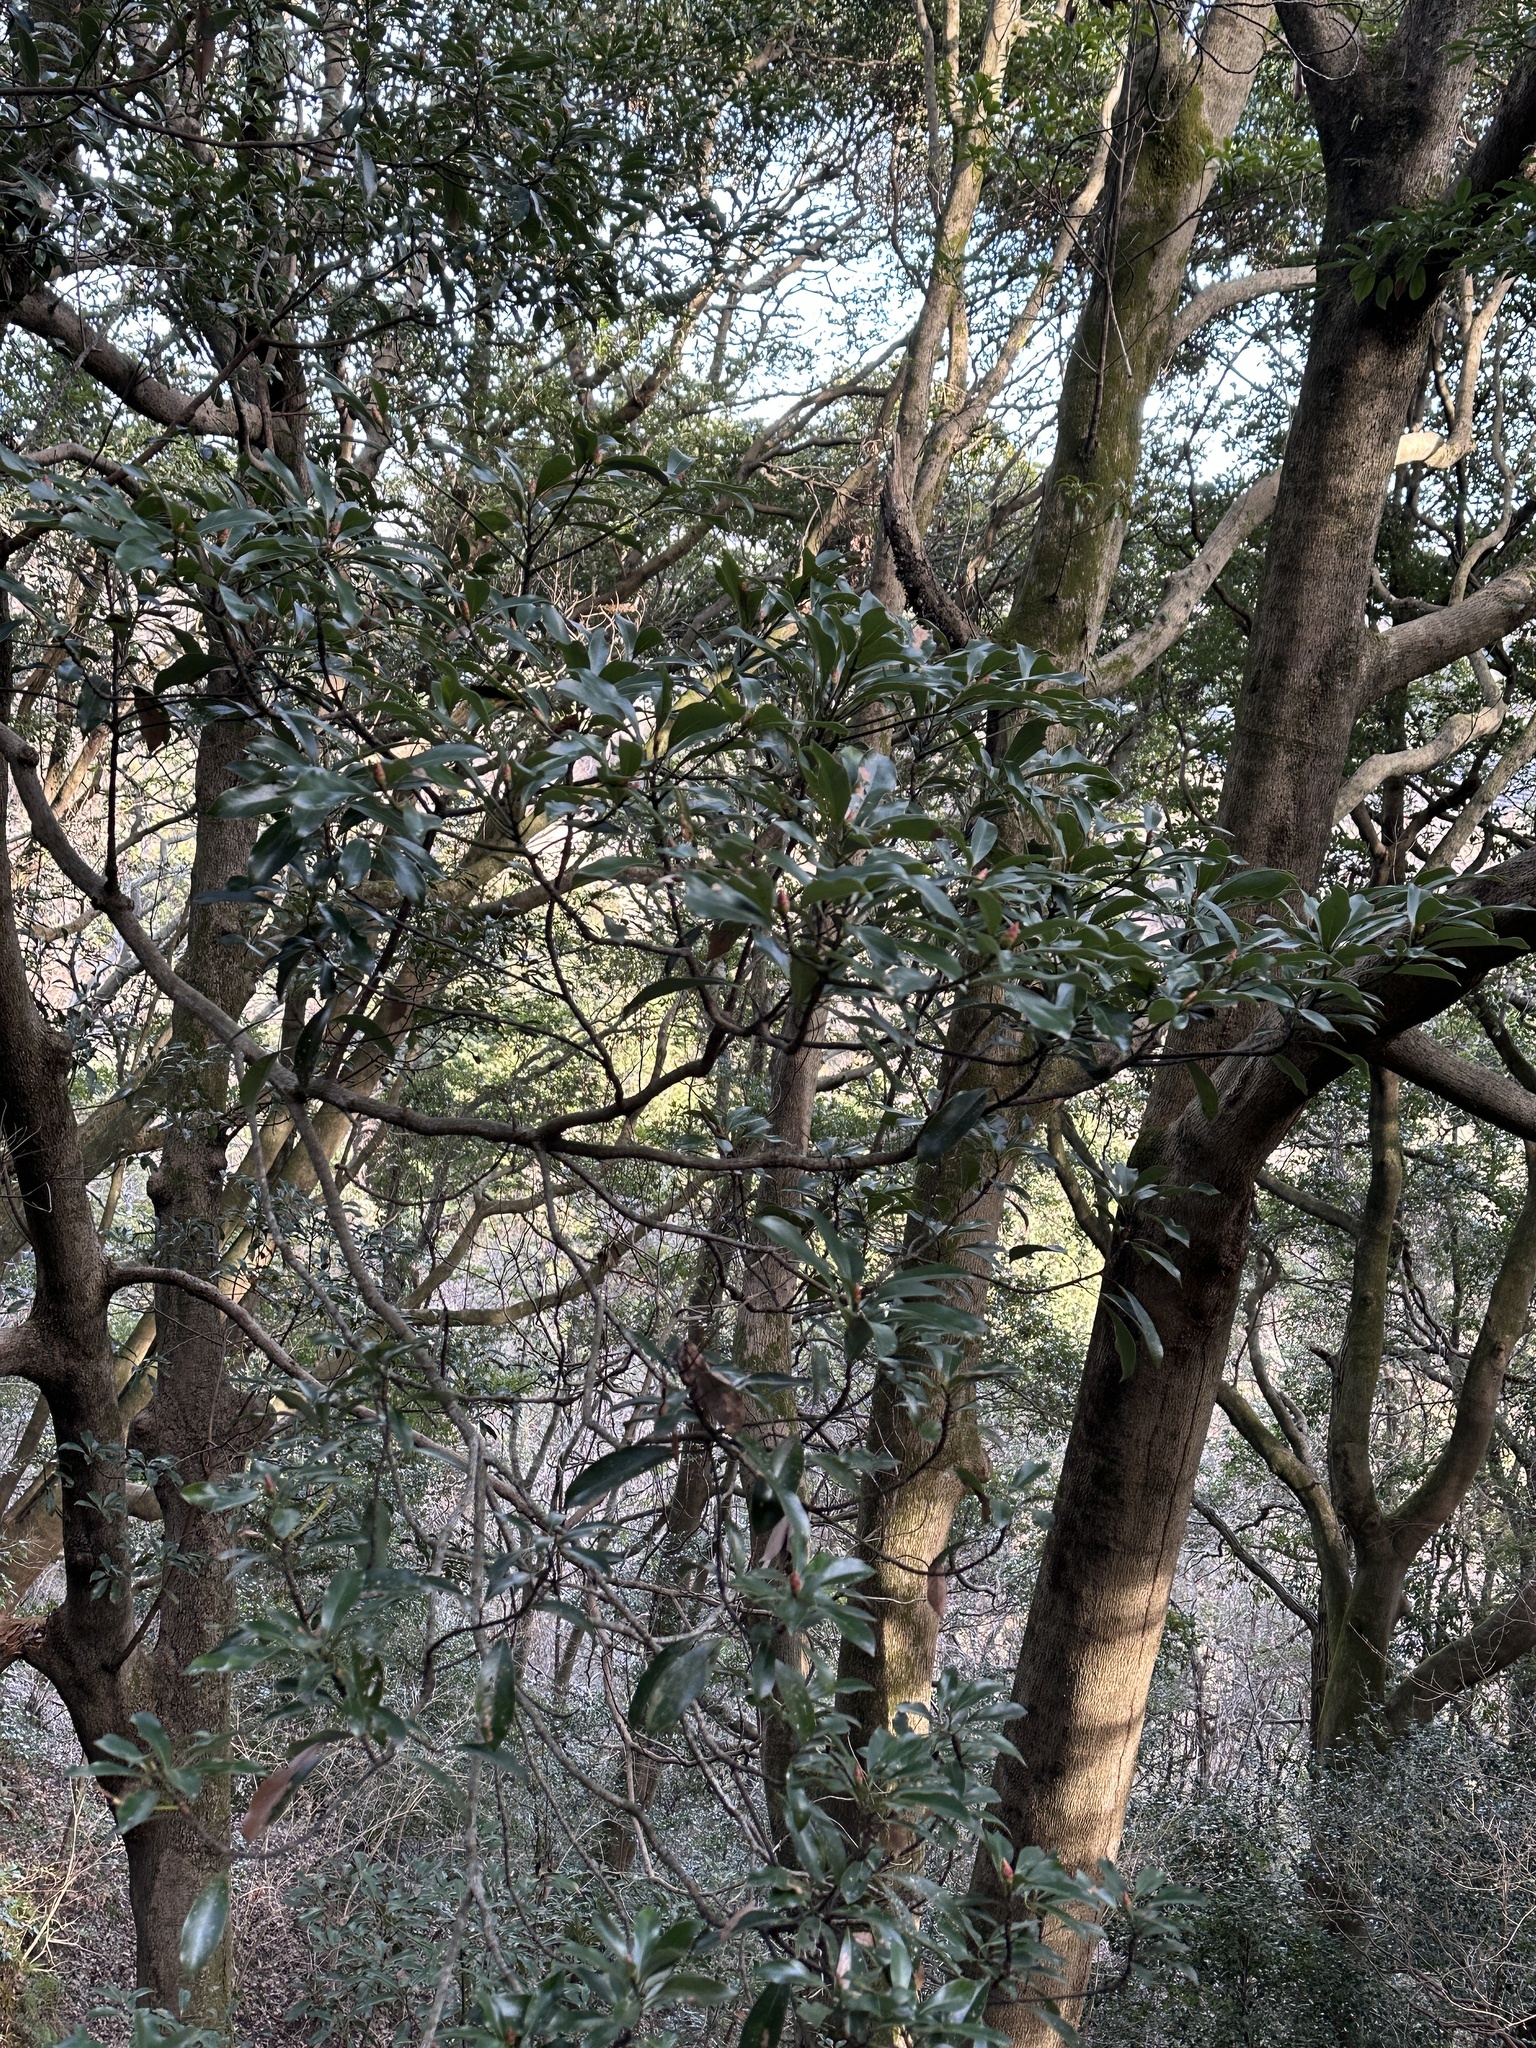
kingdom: Plantae
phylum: Tracheophyta
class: Magnoliopsida
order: Laurales
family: Lauraceae
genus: Machilus
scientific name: Machilus thunbergii
